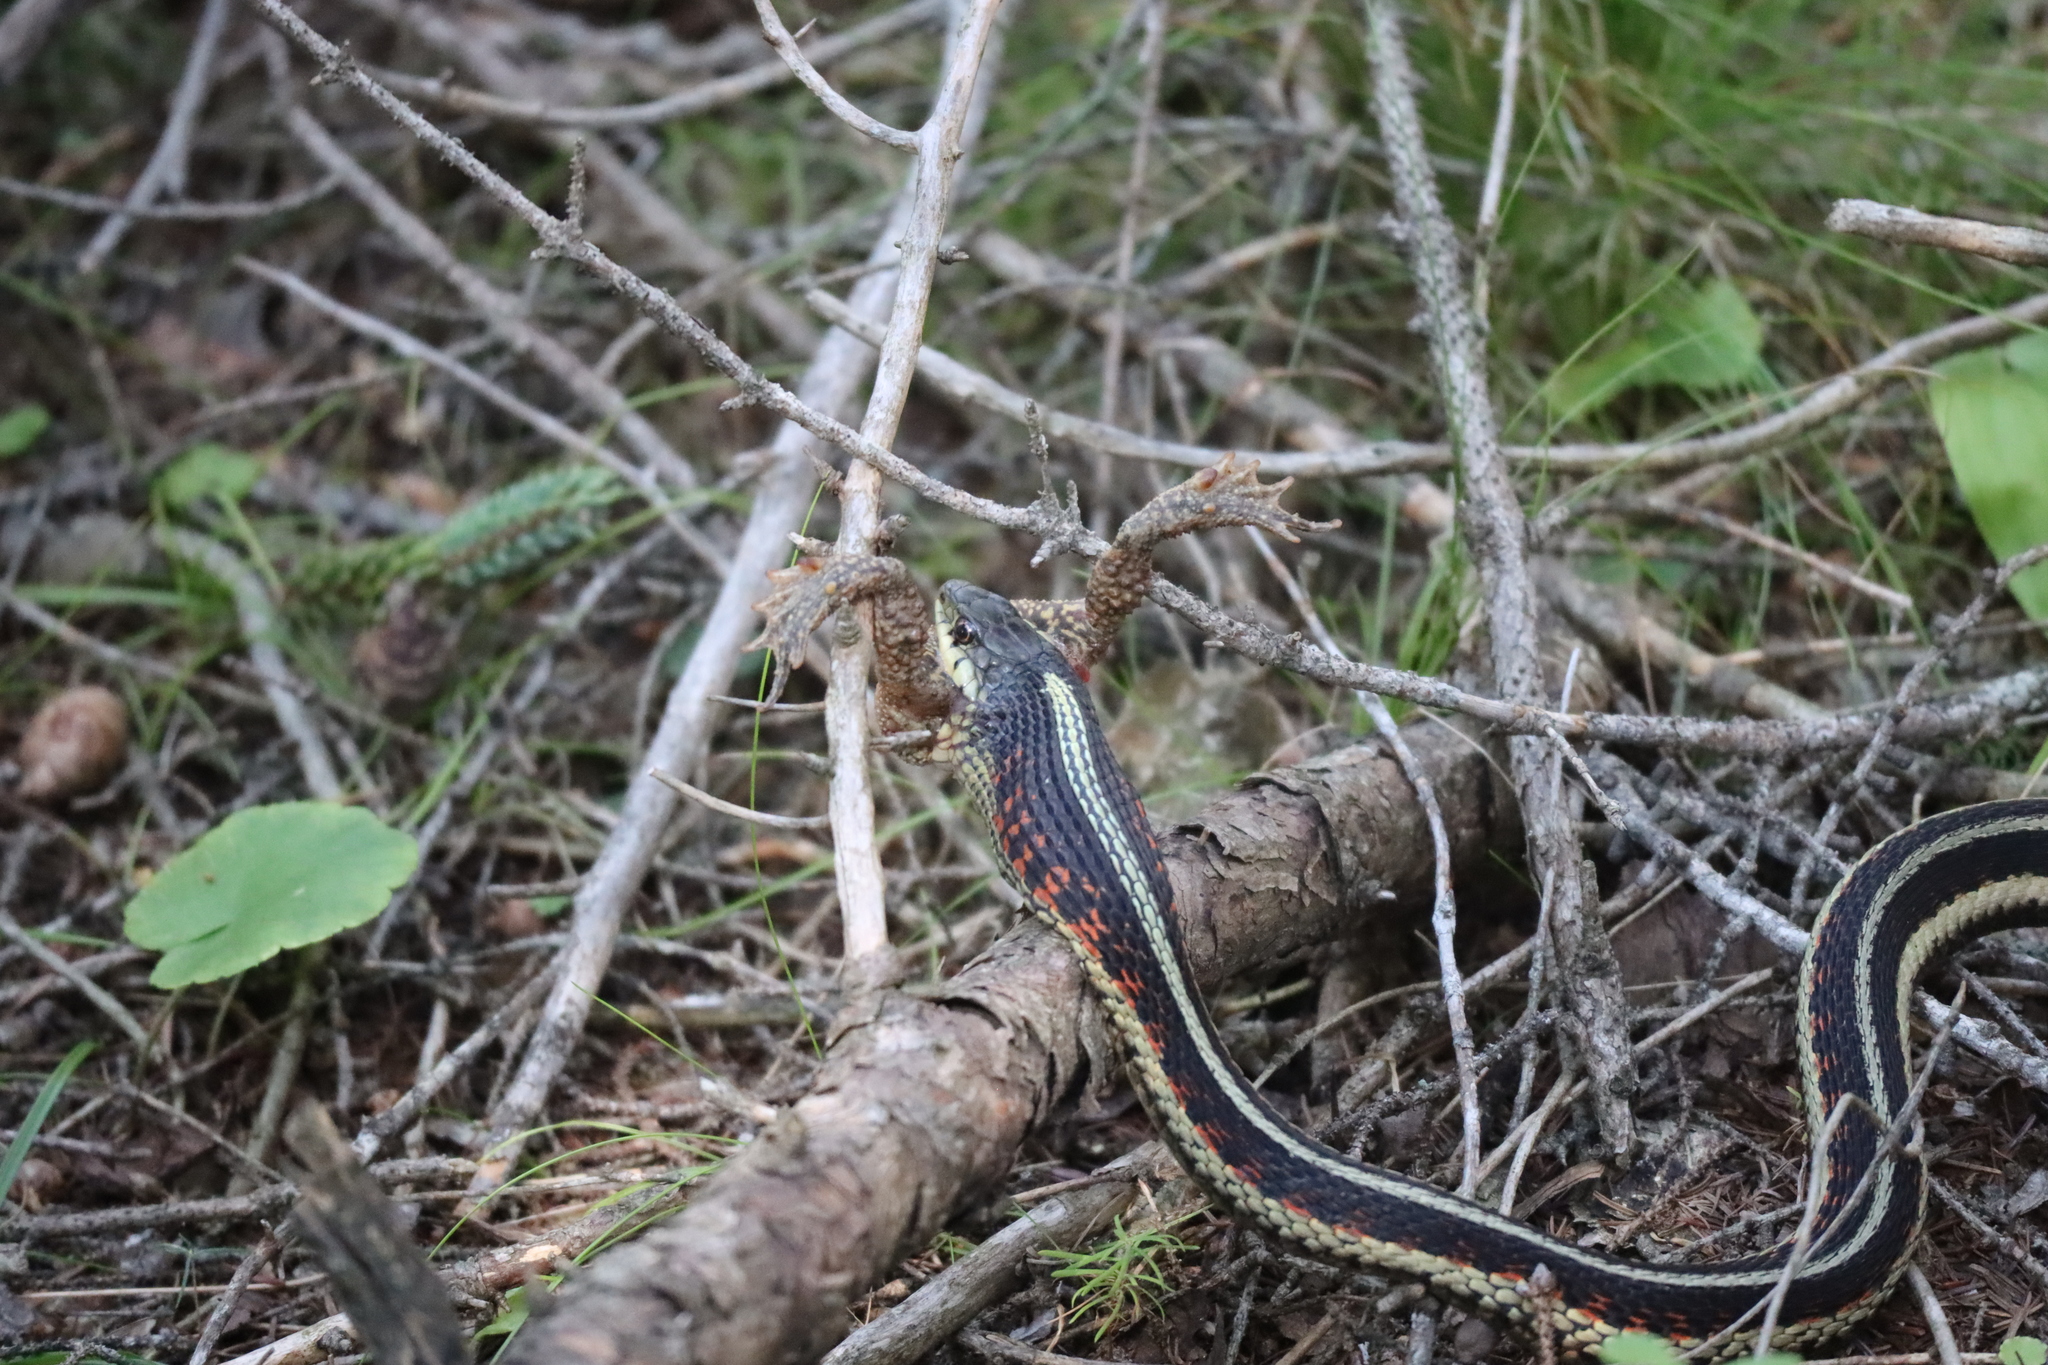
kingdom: Animalia
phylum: Chordata
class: Squamata
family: Colubridae
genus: Thamnophis
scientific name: Thamnophis sirtalis
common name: Common garter snake
